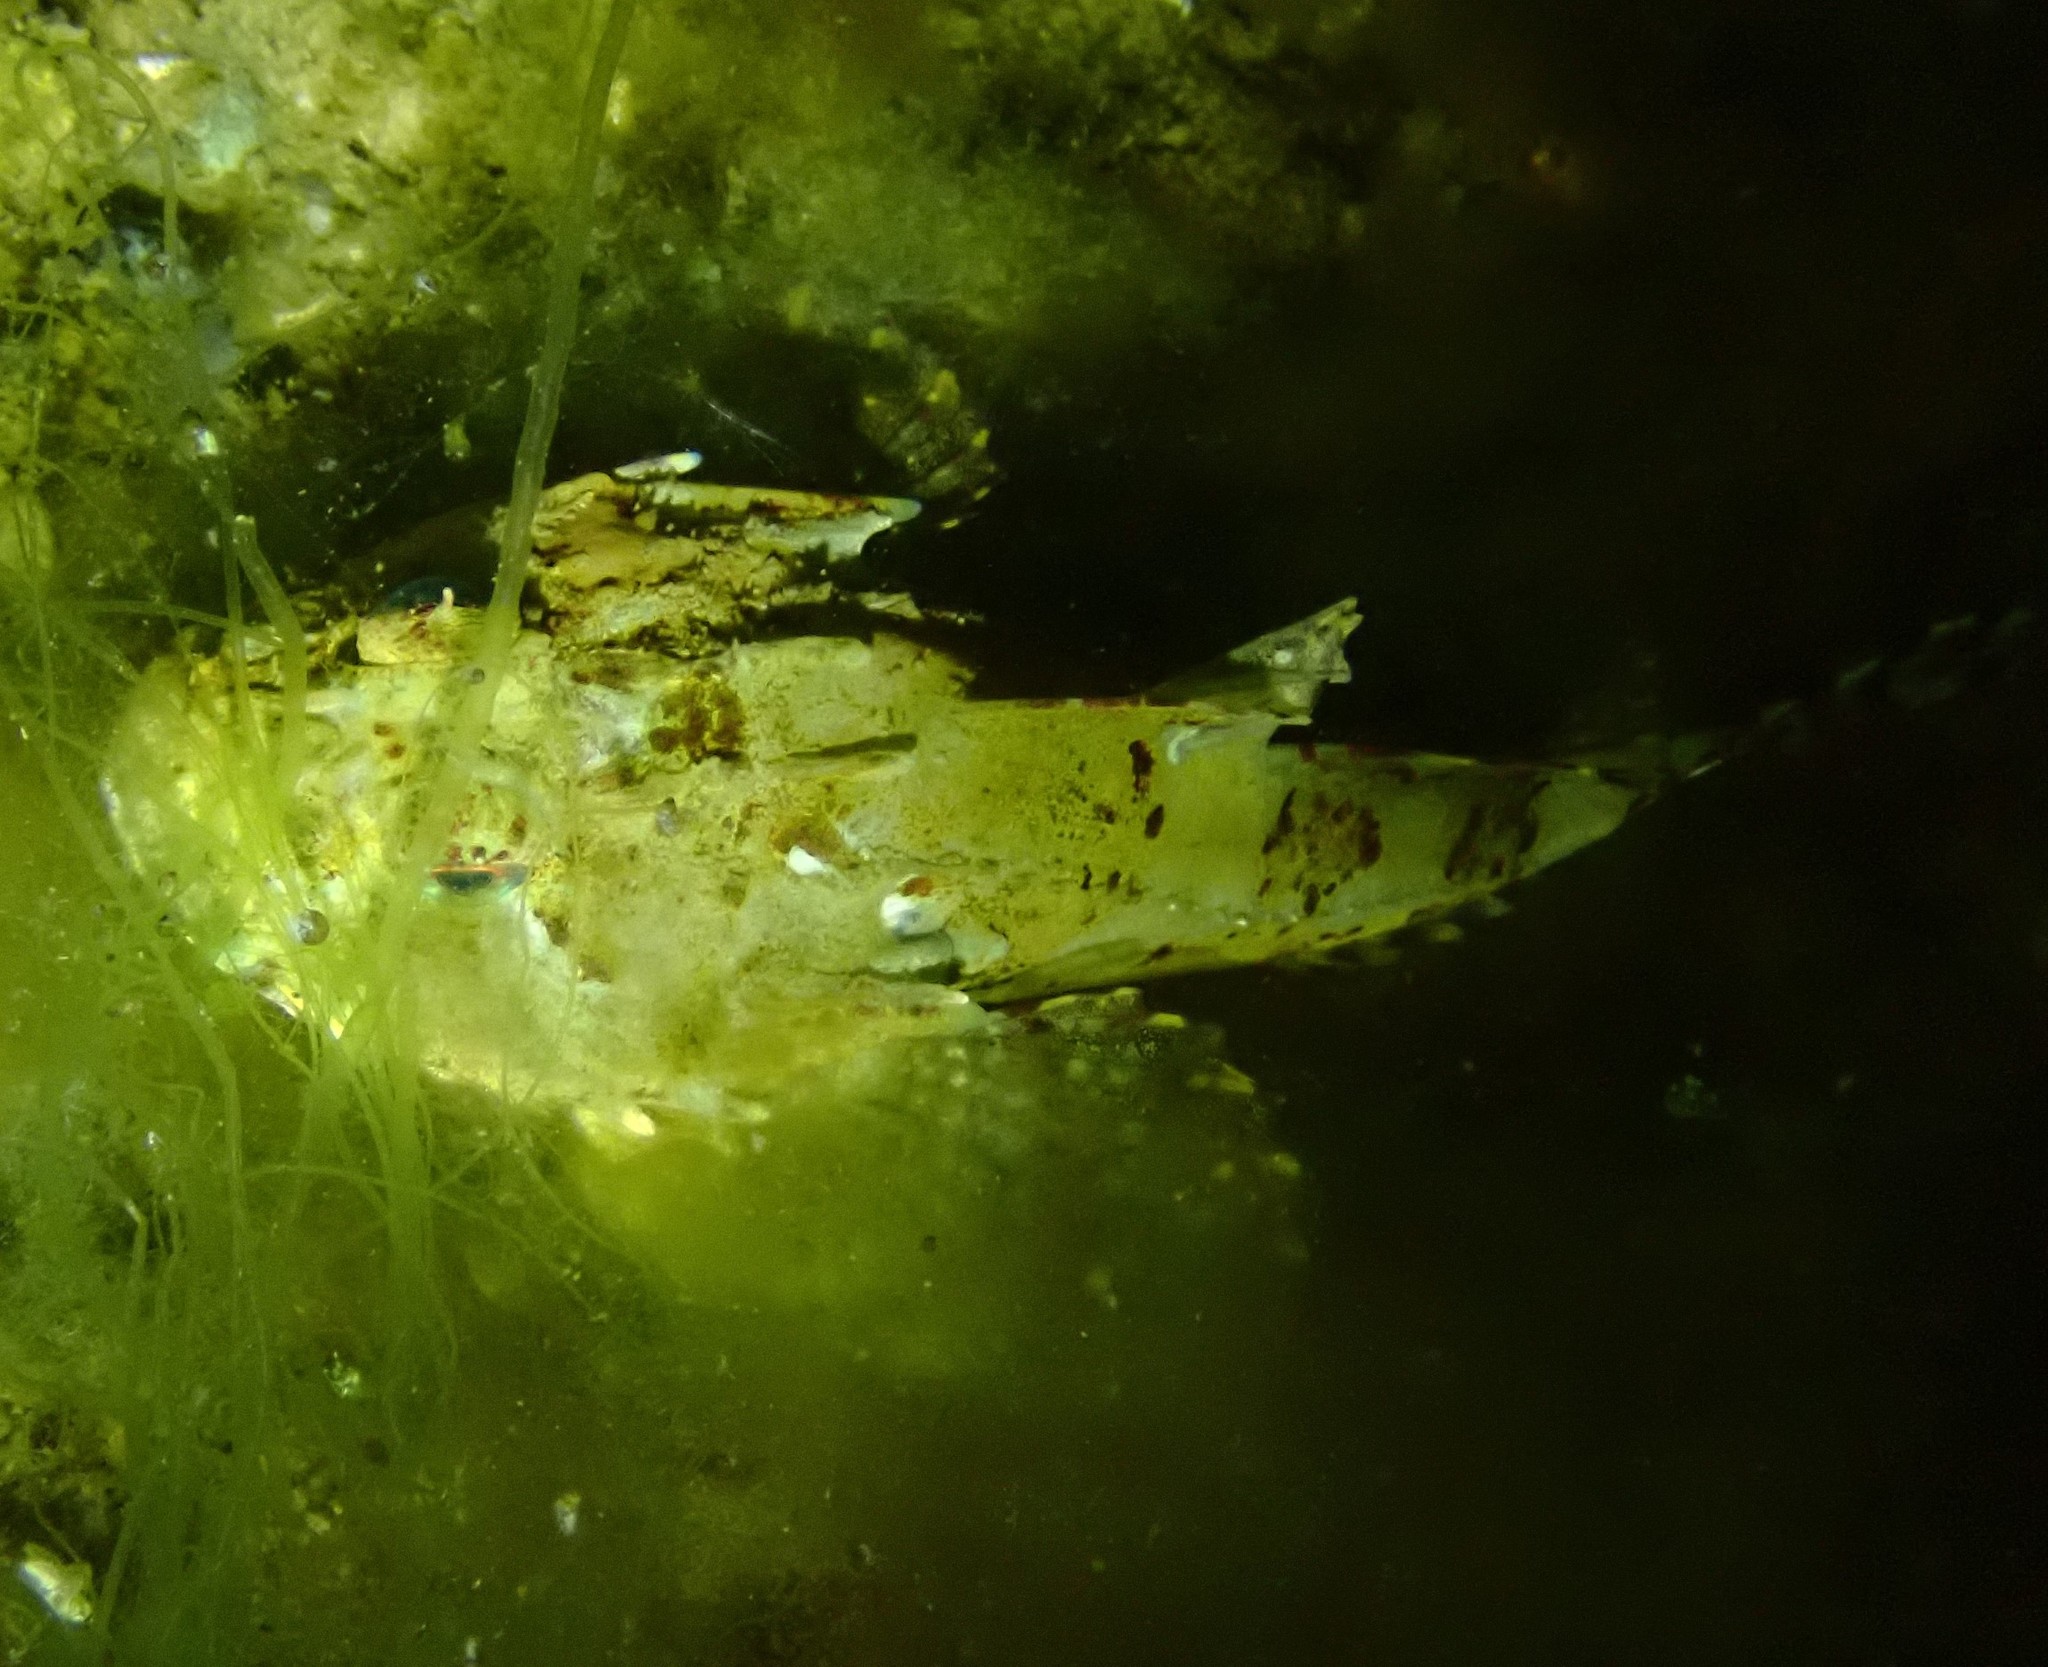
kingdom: Animalia
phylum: Chordata
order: Scorpaeniformes
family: Cottidae
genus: Taurulus
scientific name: Taurulus bubalis
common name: Sea scorpion
